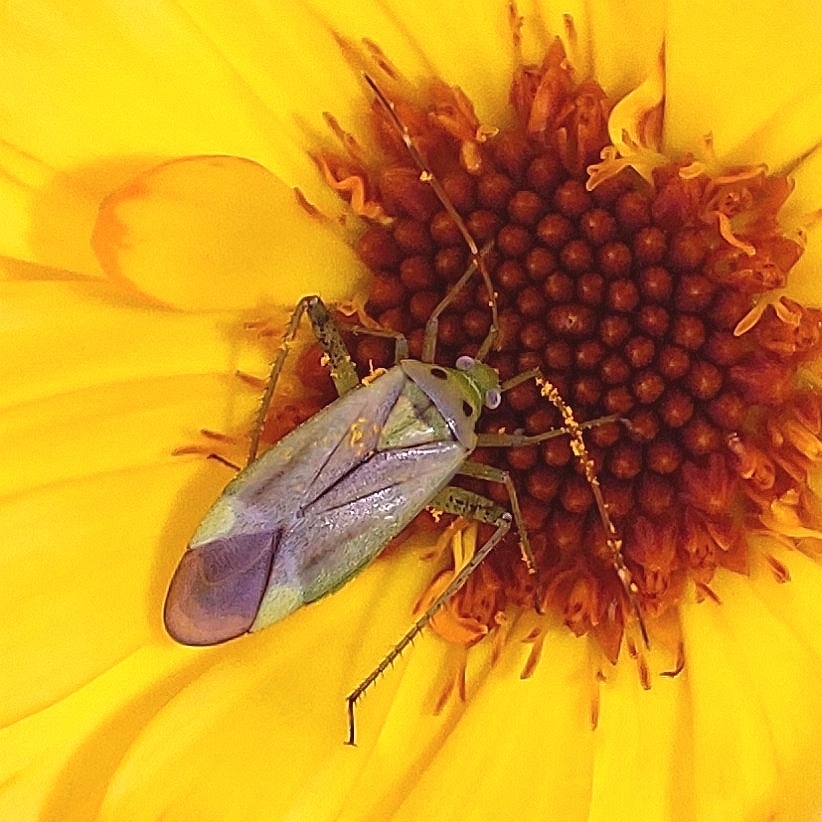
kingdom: Animalia
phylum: Arthropoda
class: Insecta
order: Hemiptera
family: Miridae
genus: Adelphocoris
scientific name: Adelphocoris quadripunctatus
